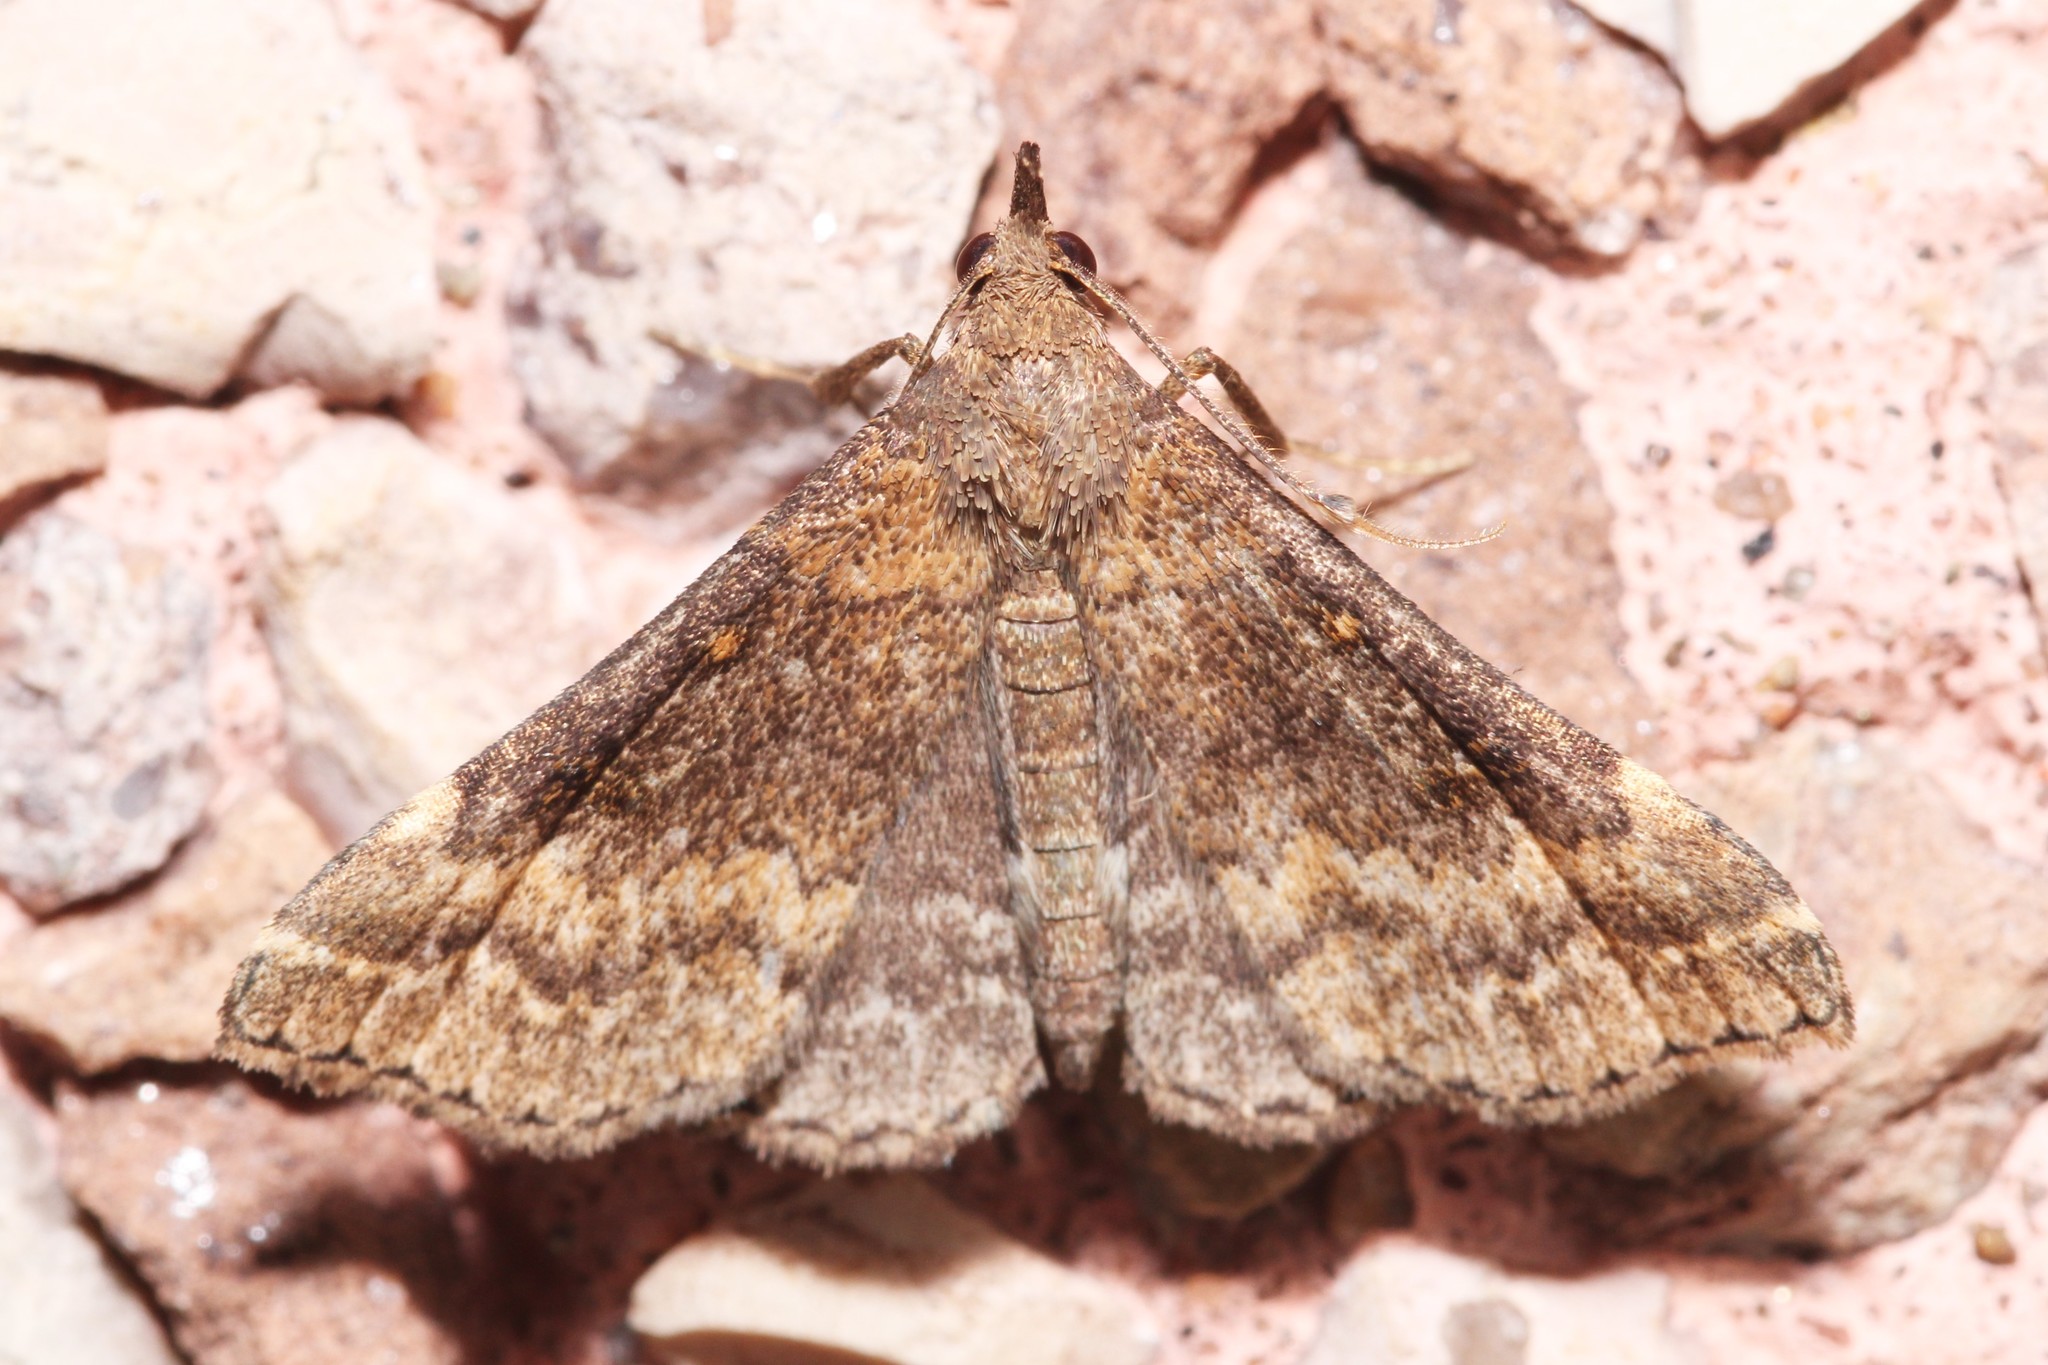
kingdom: Animalia
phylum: Arthropoda
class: Insecta
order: Lepidoptera
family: Erebidae
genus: Renia
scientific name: Renia factiosalis
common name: Sociable renia moth
